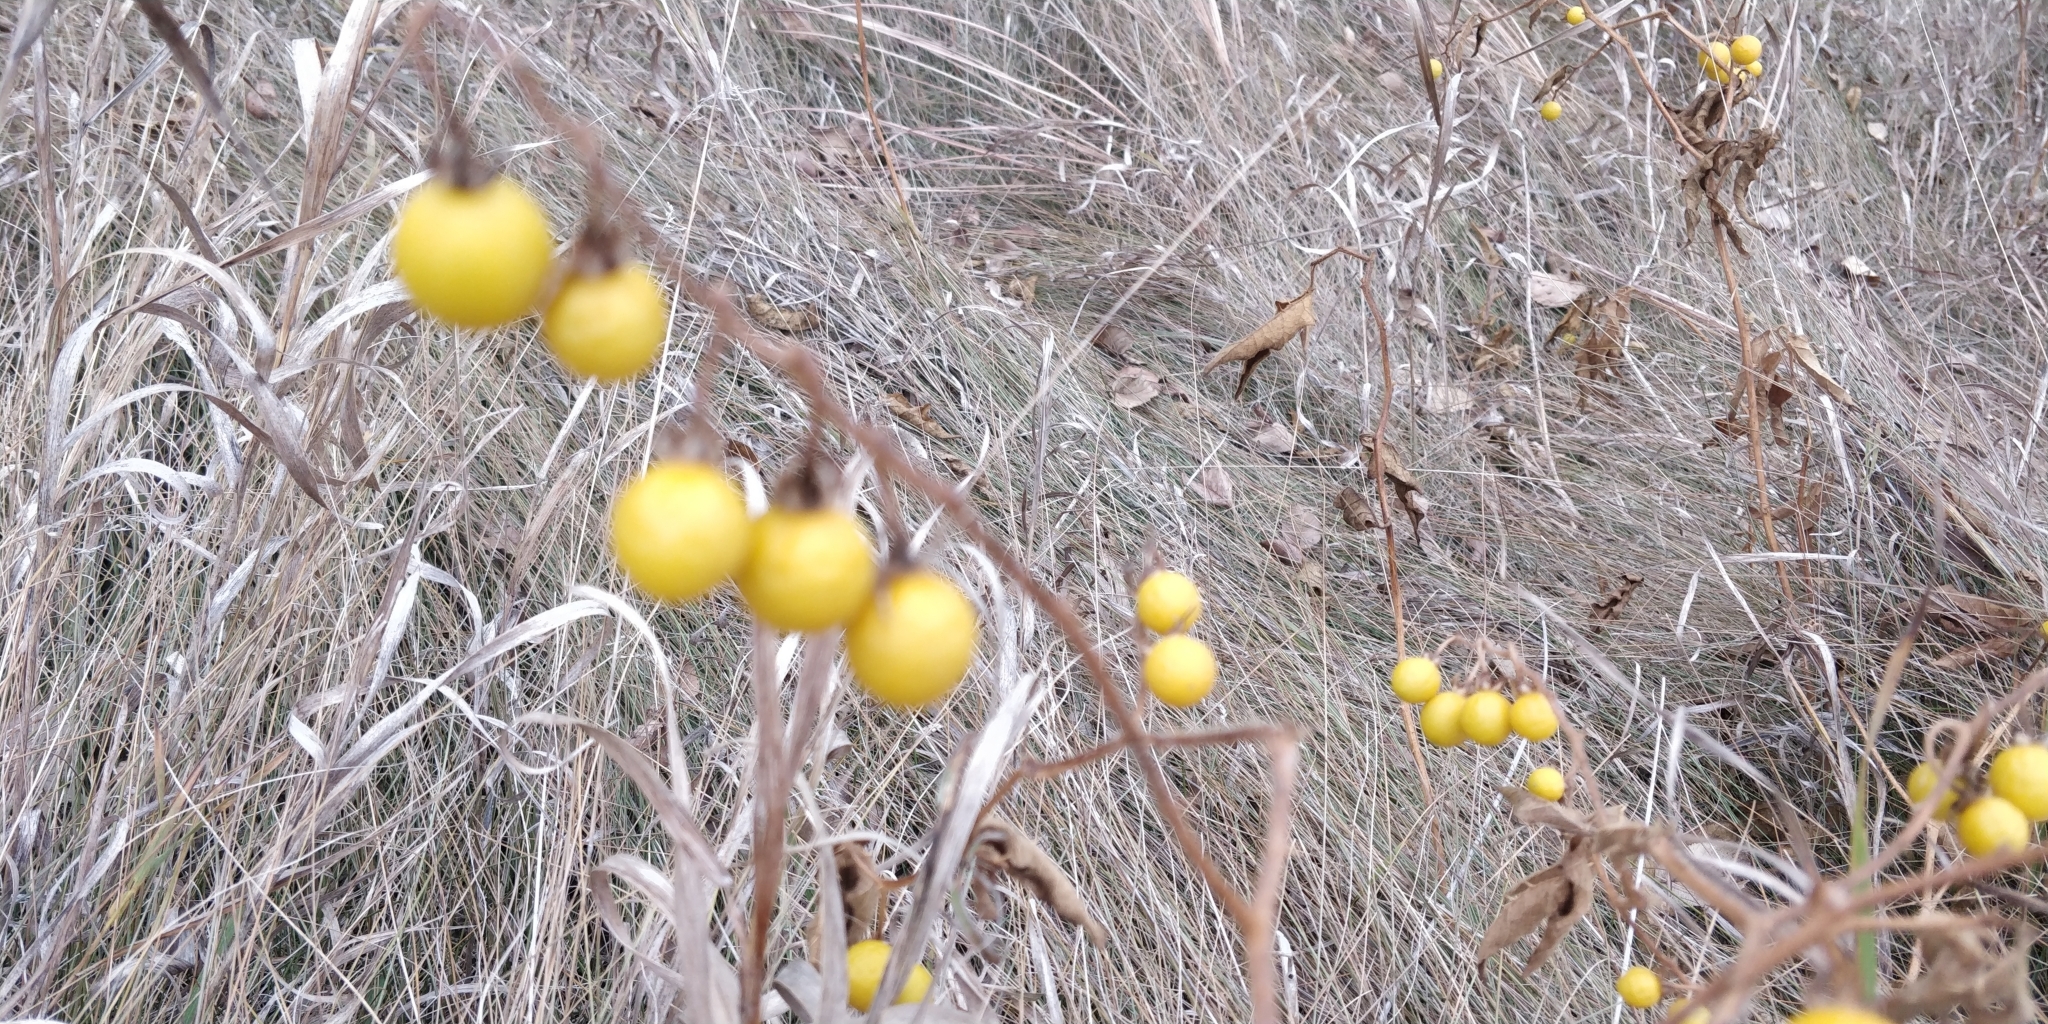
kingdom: Plantae
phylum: Tracheophyta
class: Magnoliopsida
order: Solanales
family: Solanaceae
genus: Solanum
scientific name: Solanum carolinense
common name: Horse-nettle
